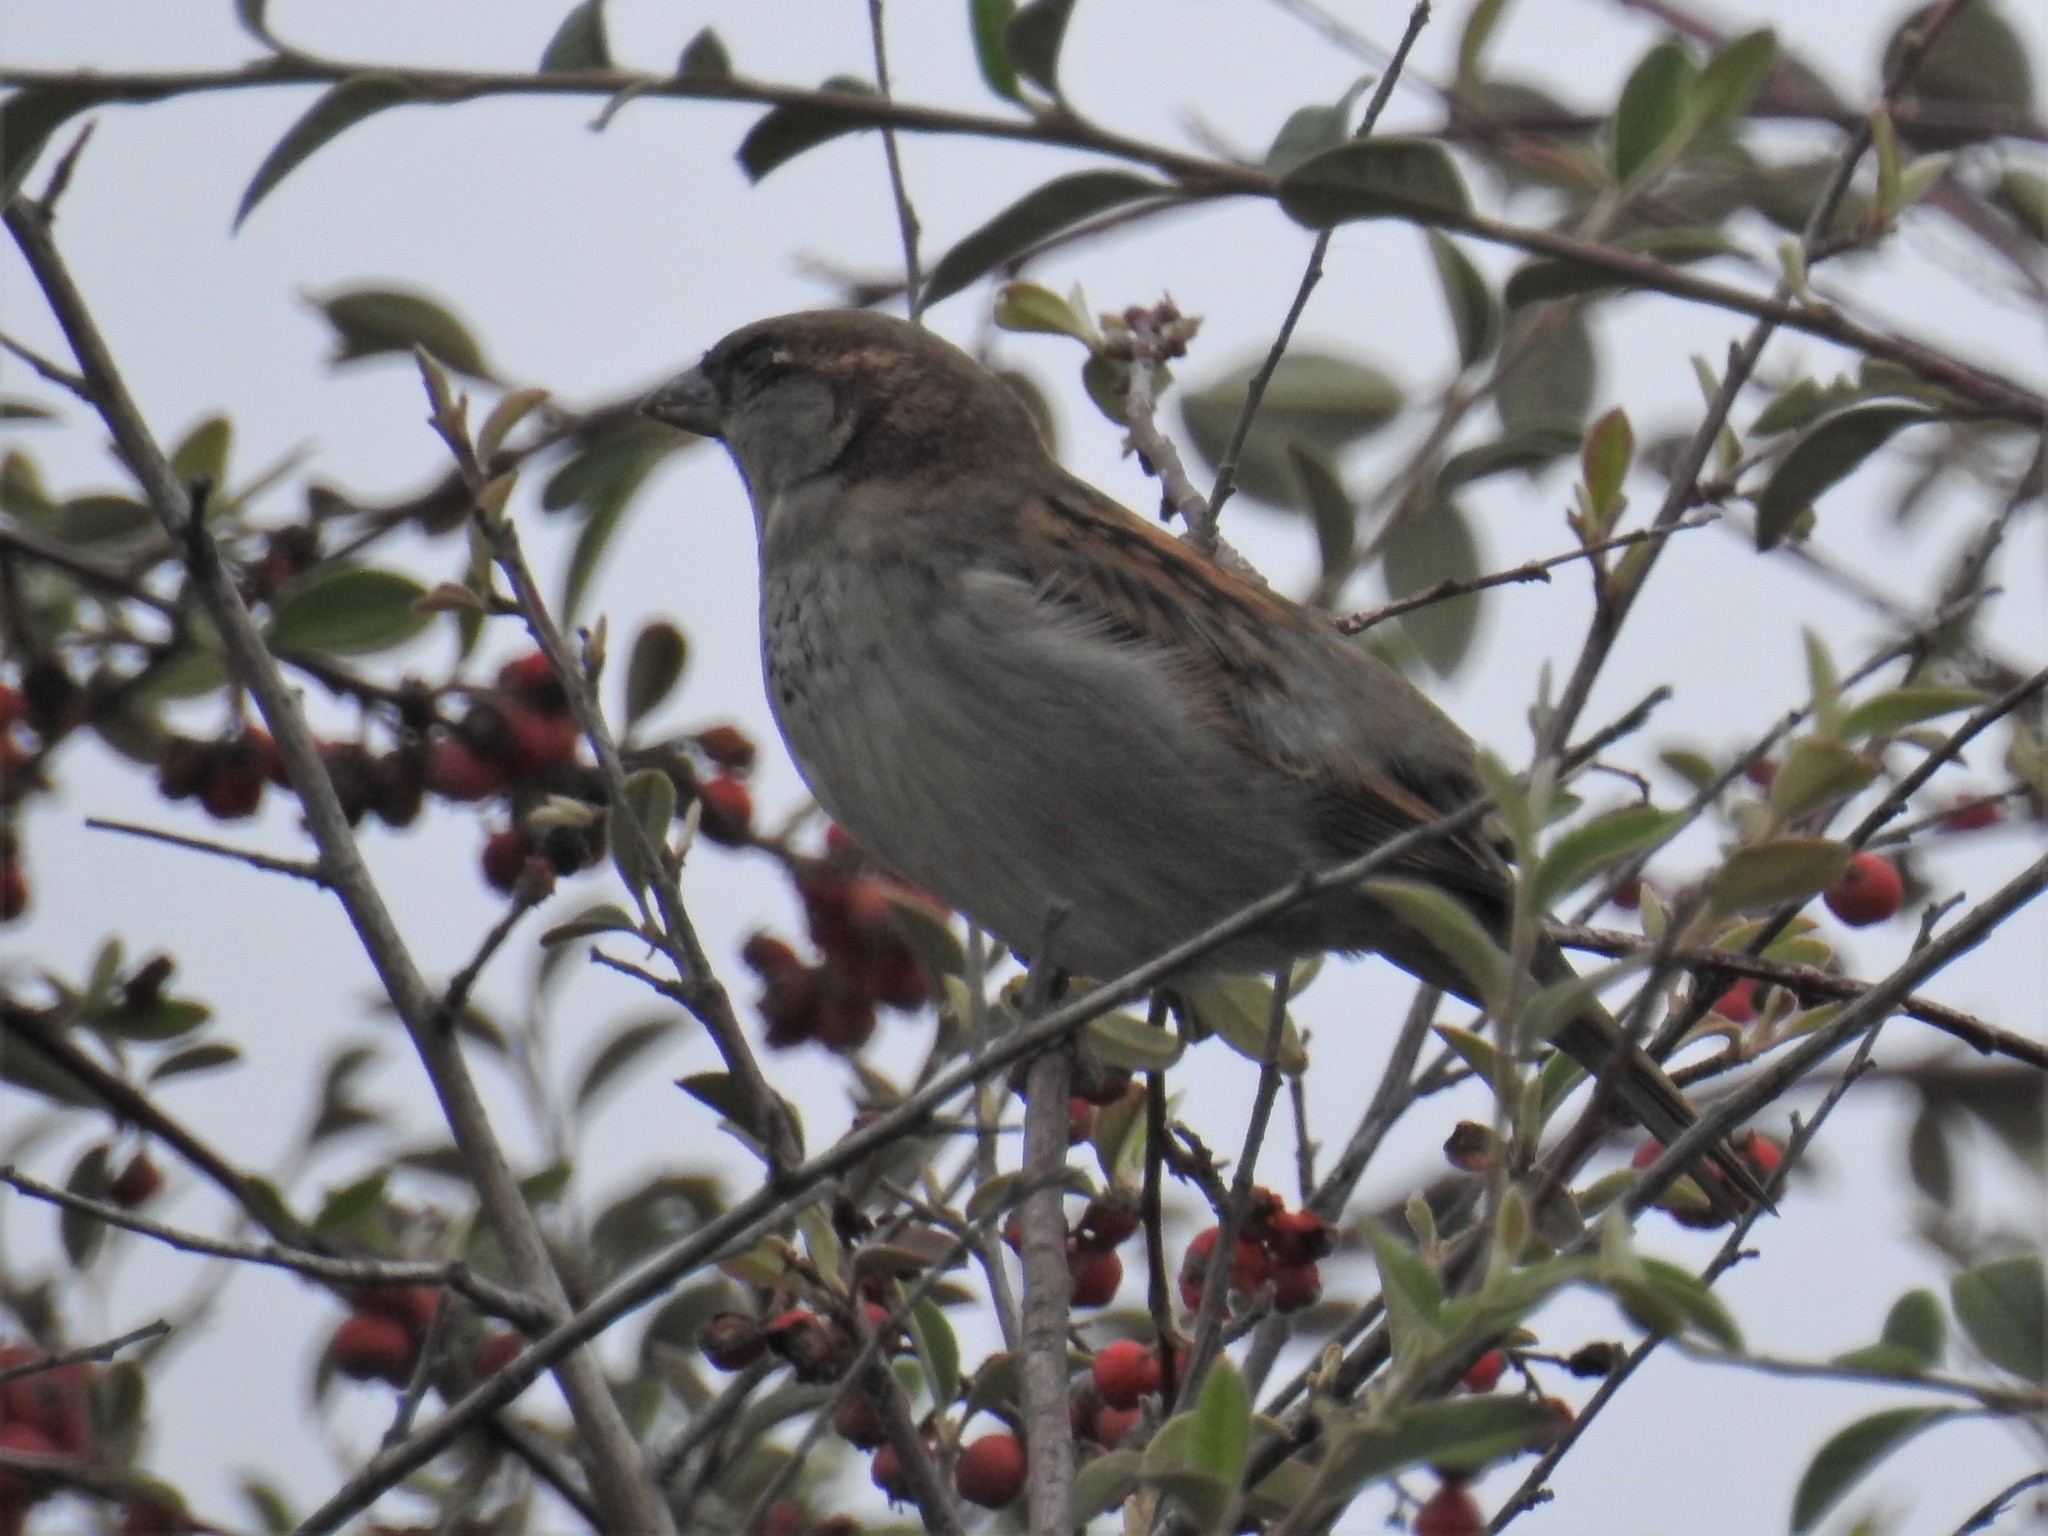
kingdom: Animalia
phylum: Chordata
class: Aves
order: Passeriformes
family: Passeridae
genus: Passer
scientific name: Passer domesticus
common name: House sparrow
